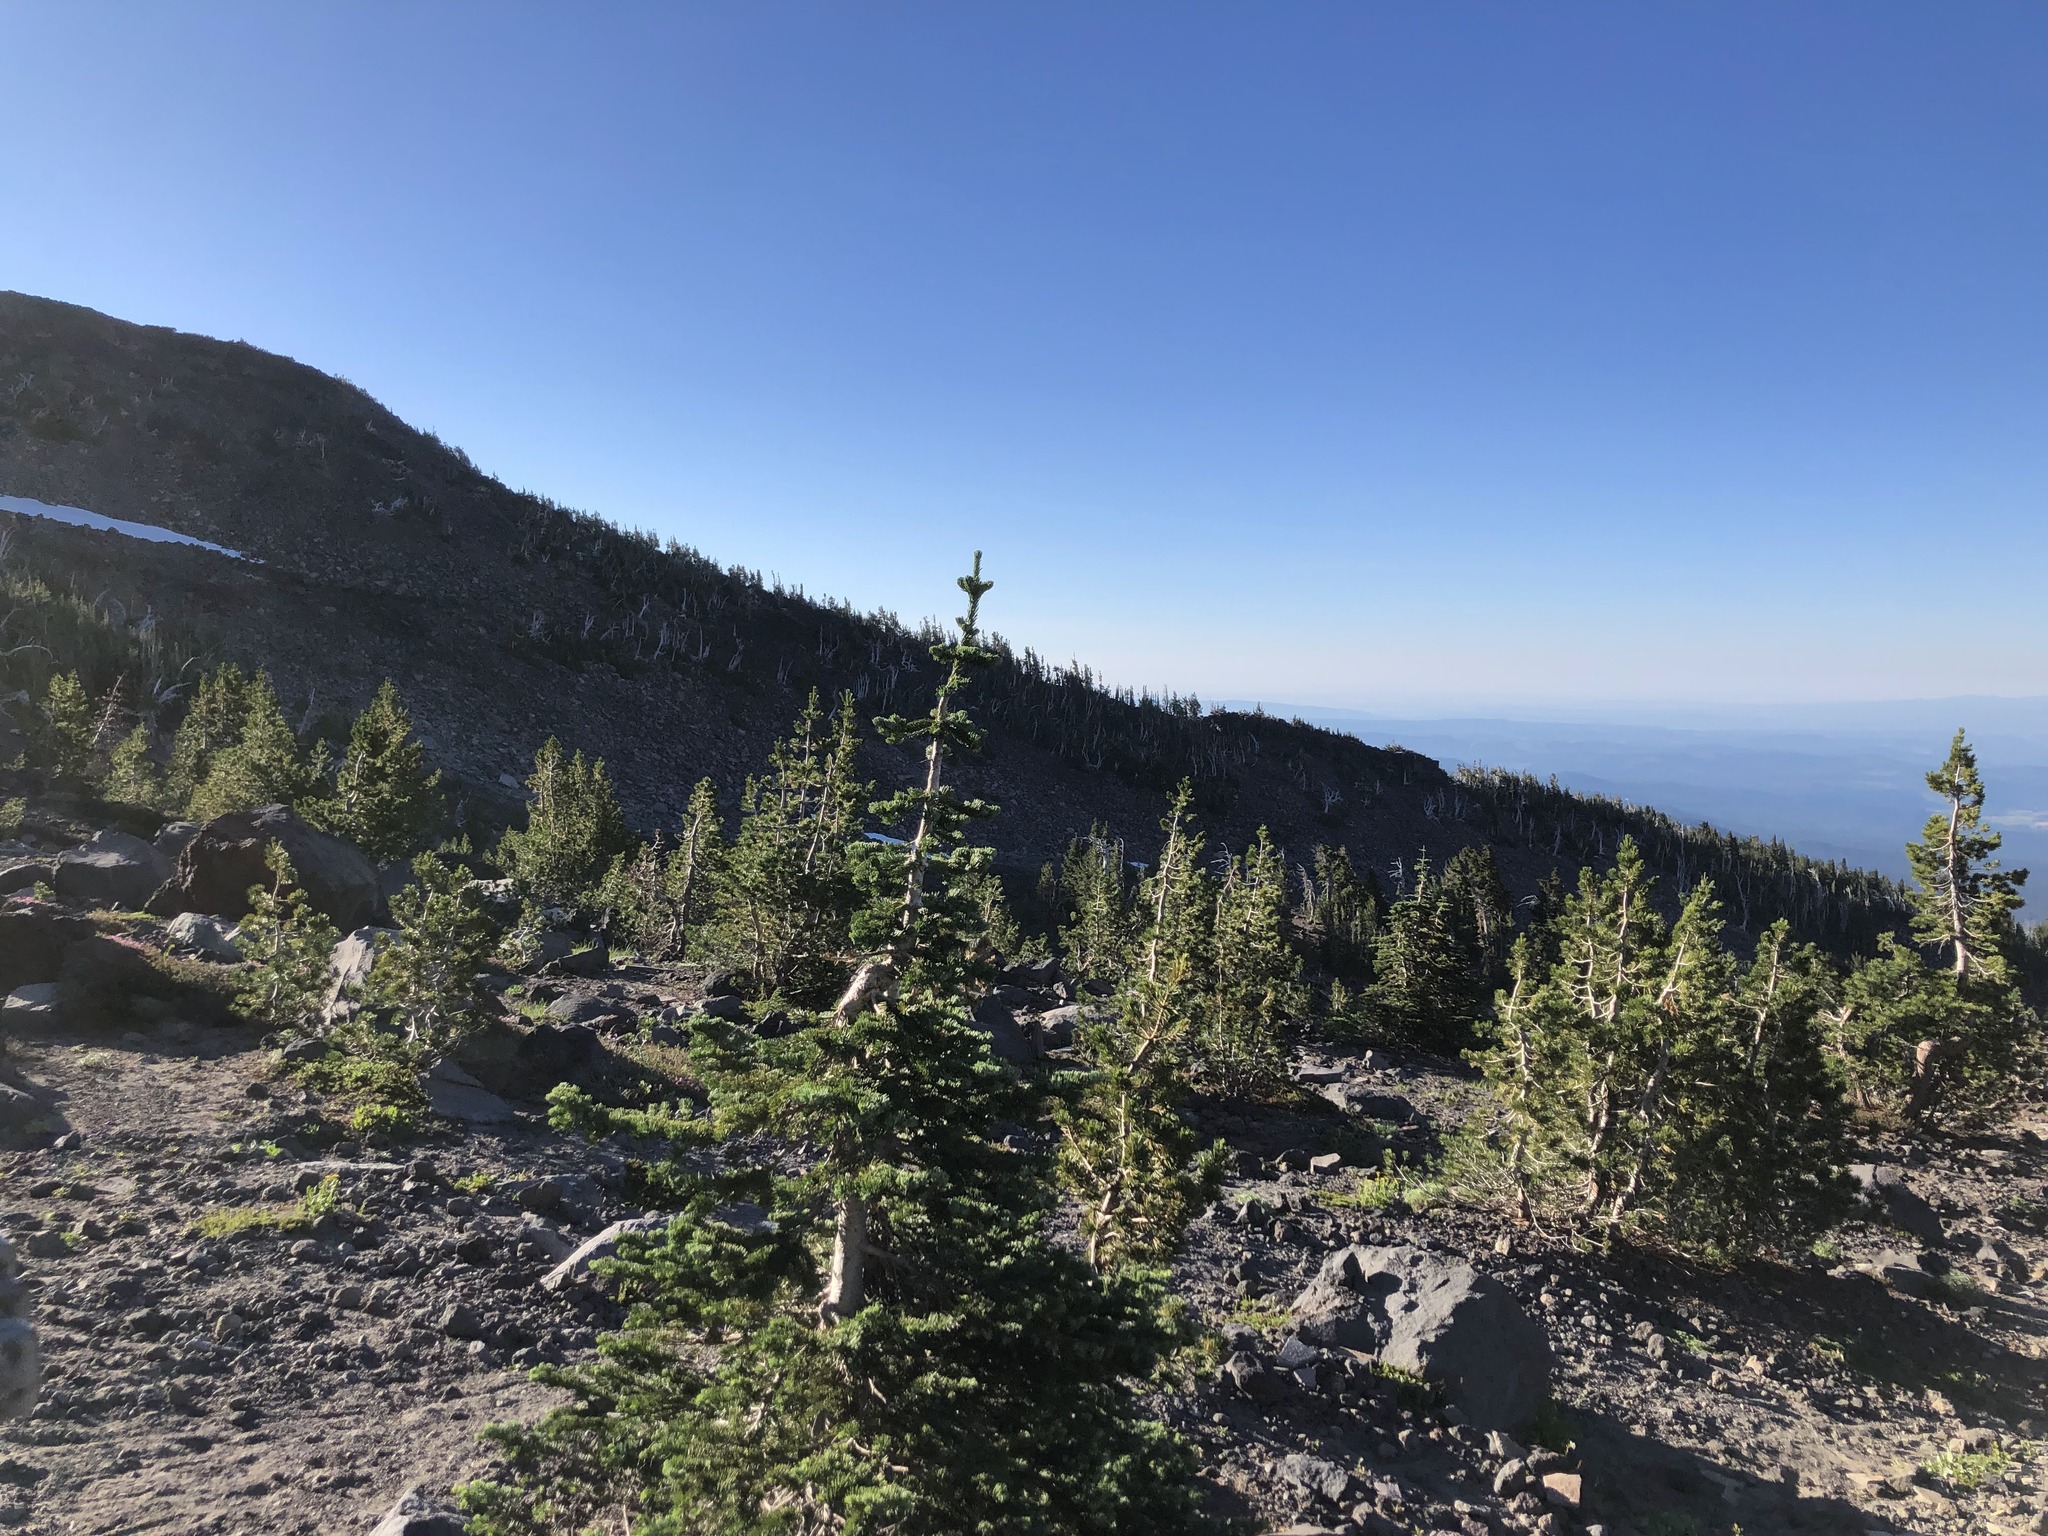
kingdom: Plantae
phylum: Tracheophyta
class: Pinopsida
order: Pinales
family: Pinaceae
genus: Abies
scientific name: Abies lasiocarpa
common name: Subalpine fir
